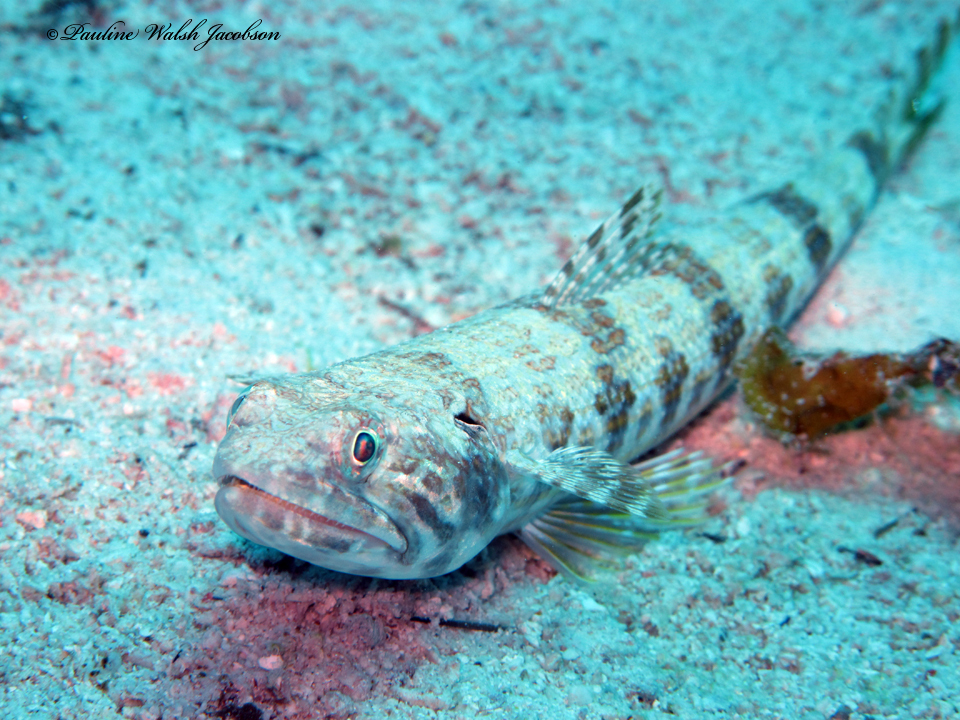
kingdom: Animalia
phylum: Chordata
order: Aulopiformes
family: Synodontidae
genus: Synodus
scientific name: Synodus intermedius
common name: Sand diver
